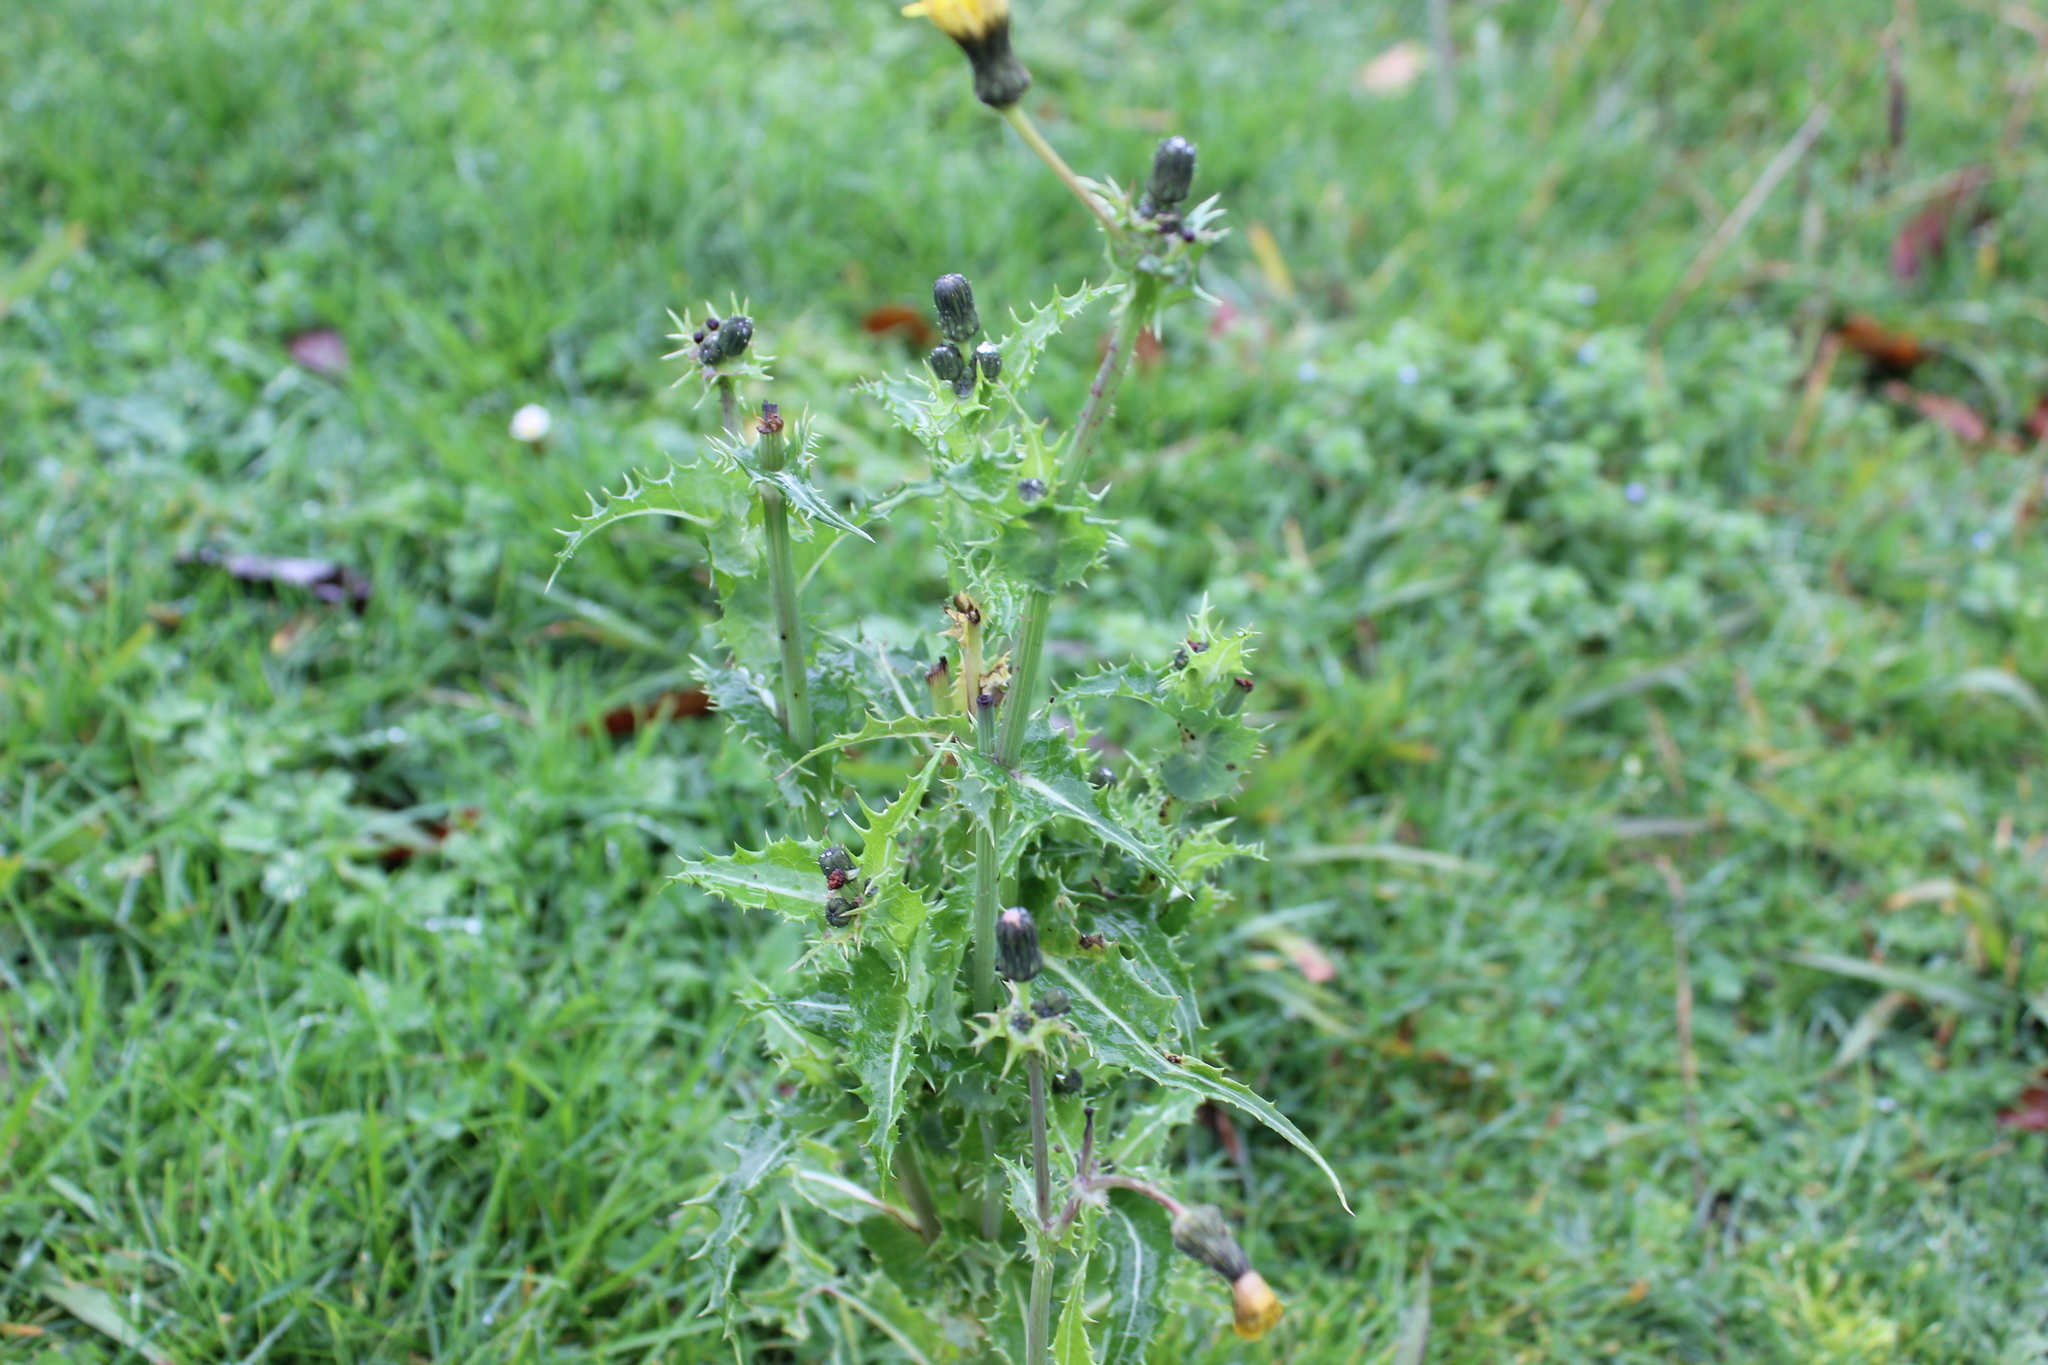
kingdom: Plantae
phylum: Tracheophyta
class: Magnoliopsida
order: Asterales
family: Asteraceae
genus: Sonchus
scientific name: Sonchus asper
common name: Prickly sow-thistle
